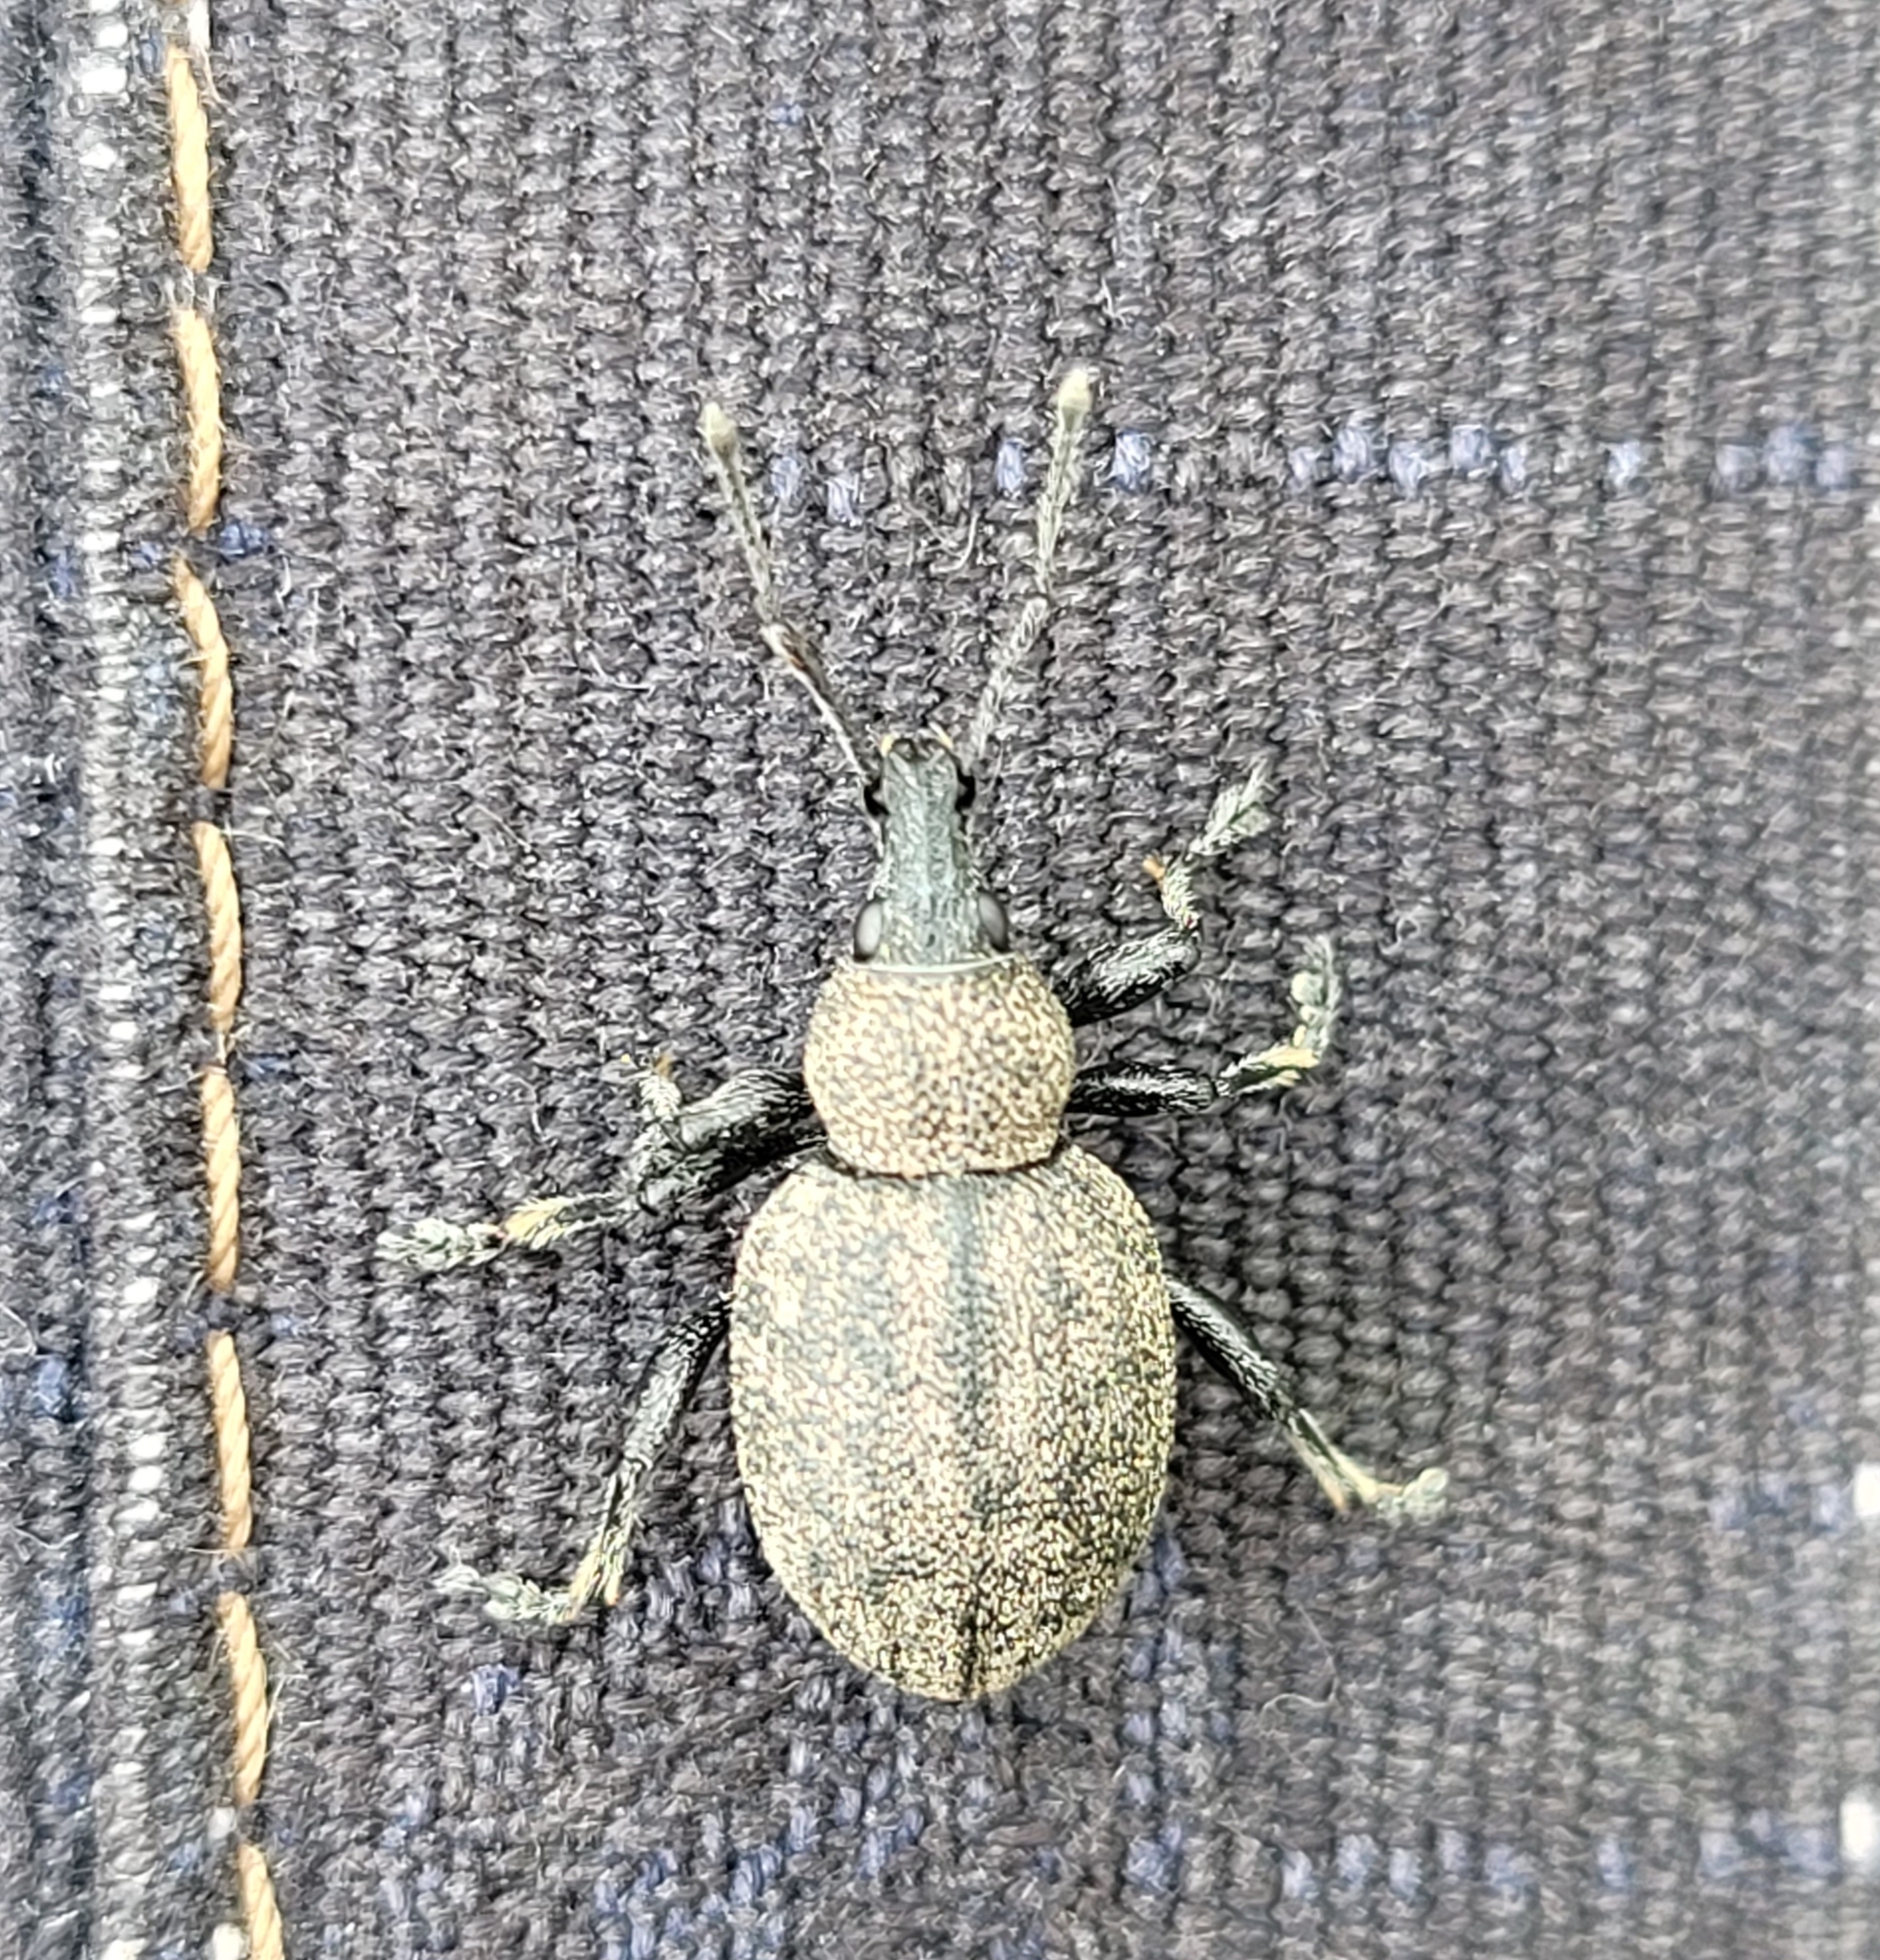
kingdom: Animalia
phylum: Arthropoda
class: Insecta
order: Coleoptera
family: Curculionidae
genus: Otiorhynchus
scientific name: Otiorhynchus ligustici
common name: Weevil
